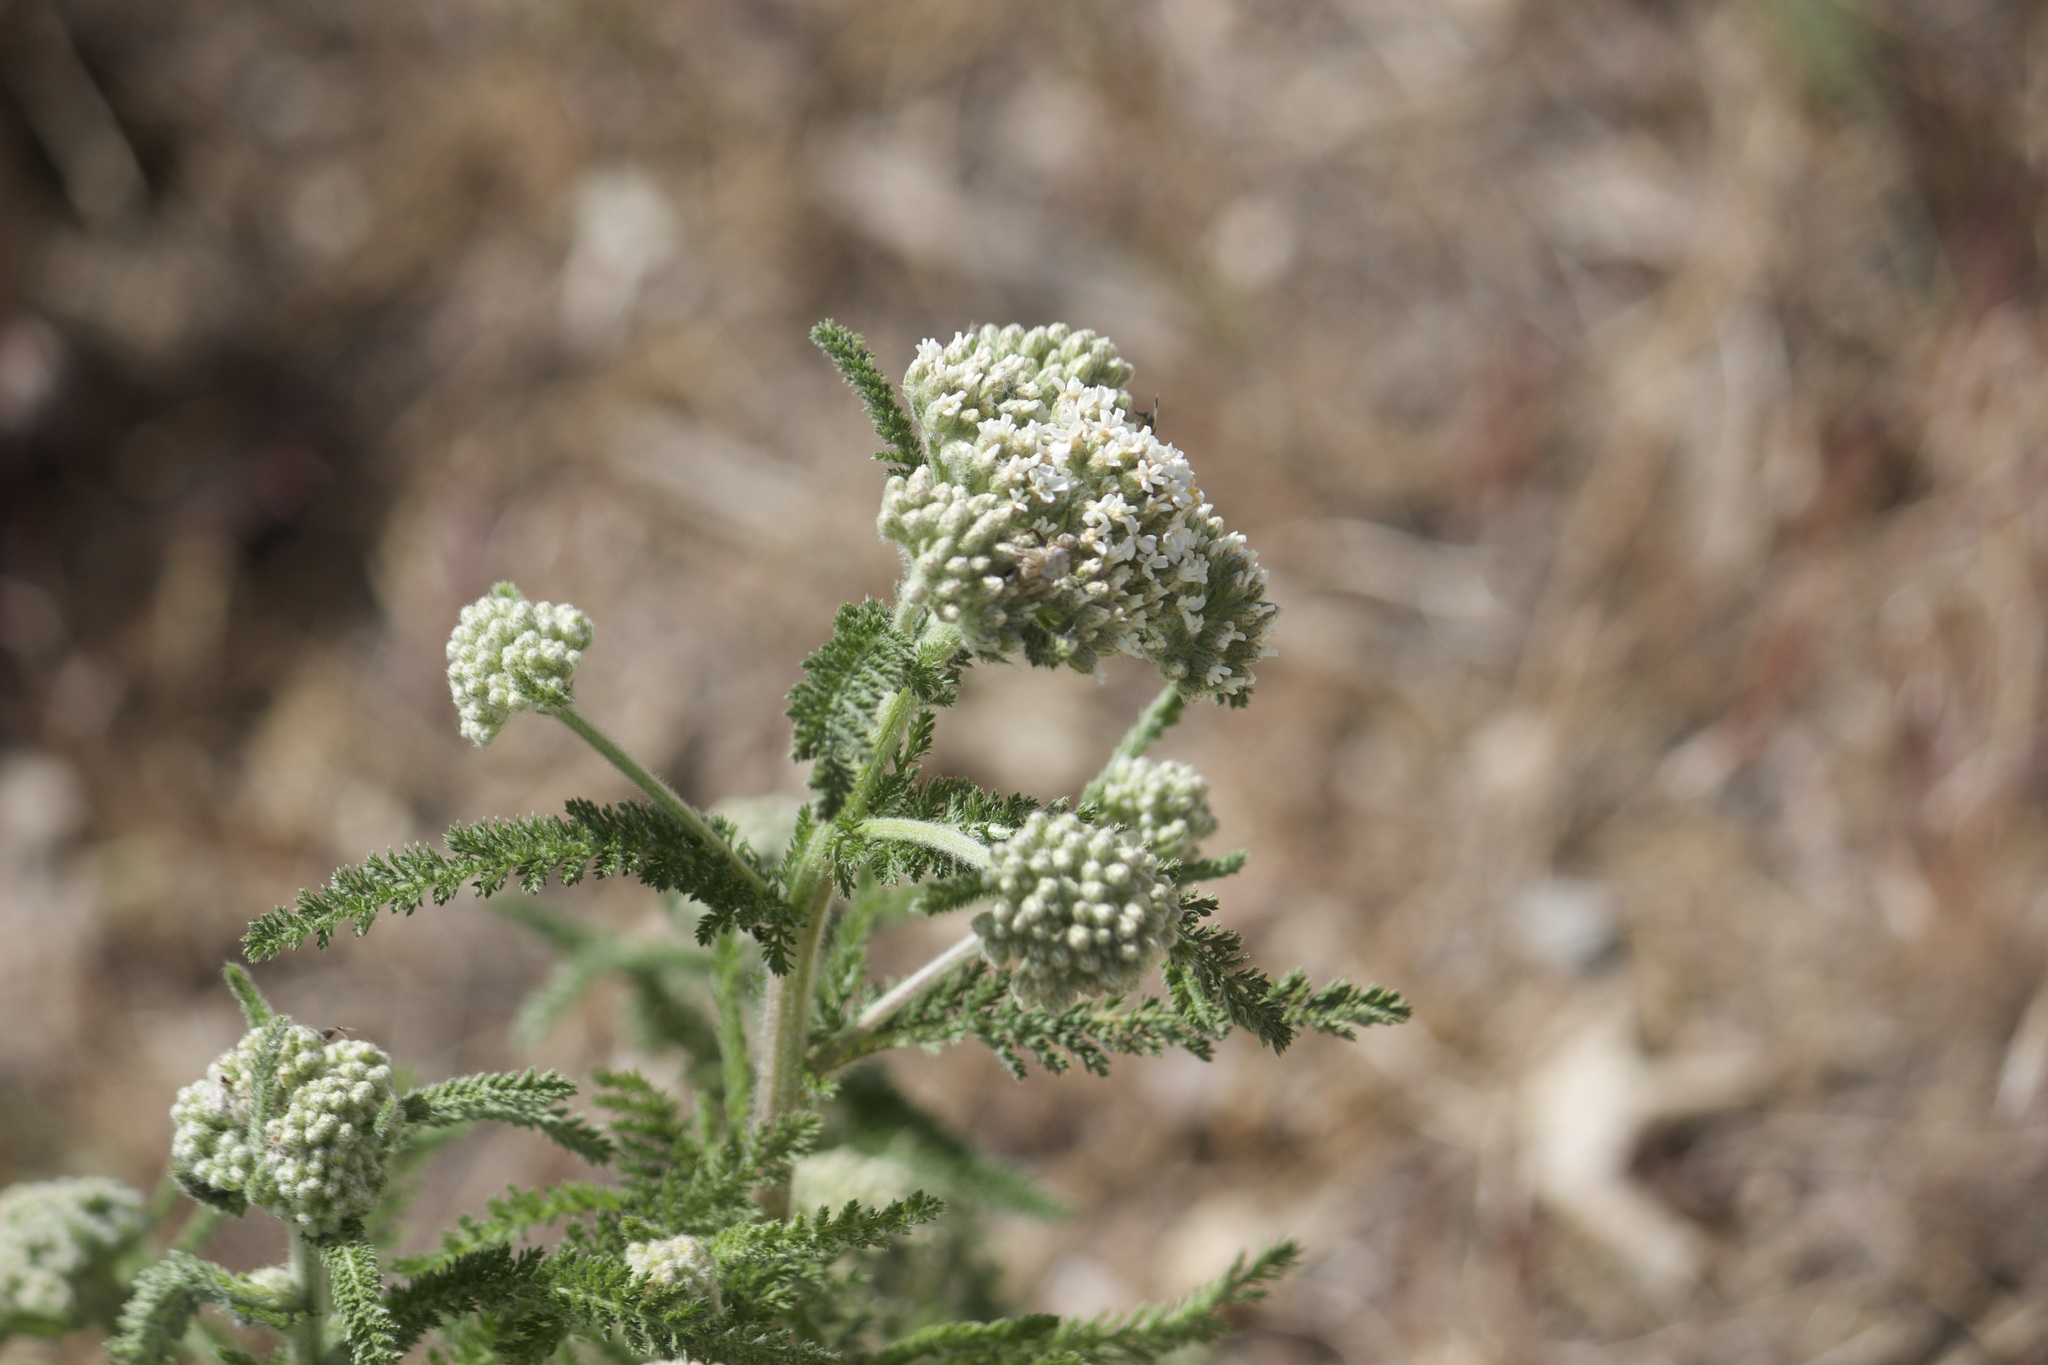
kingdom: Plantae
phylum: Tracheophyta
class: Magnoliopsida
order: Asterales
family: Asteraceae
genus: Achillea
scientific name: Achillea millefolium
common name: Yarrow
